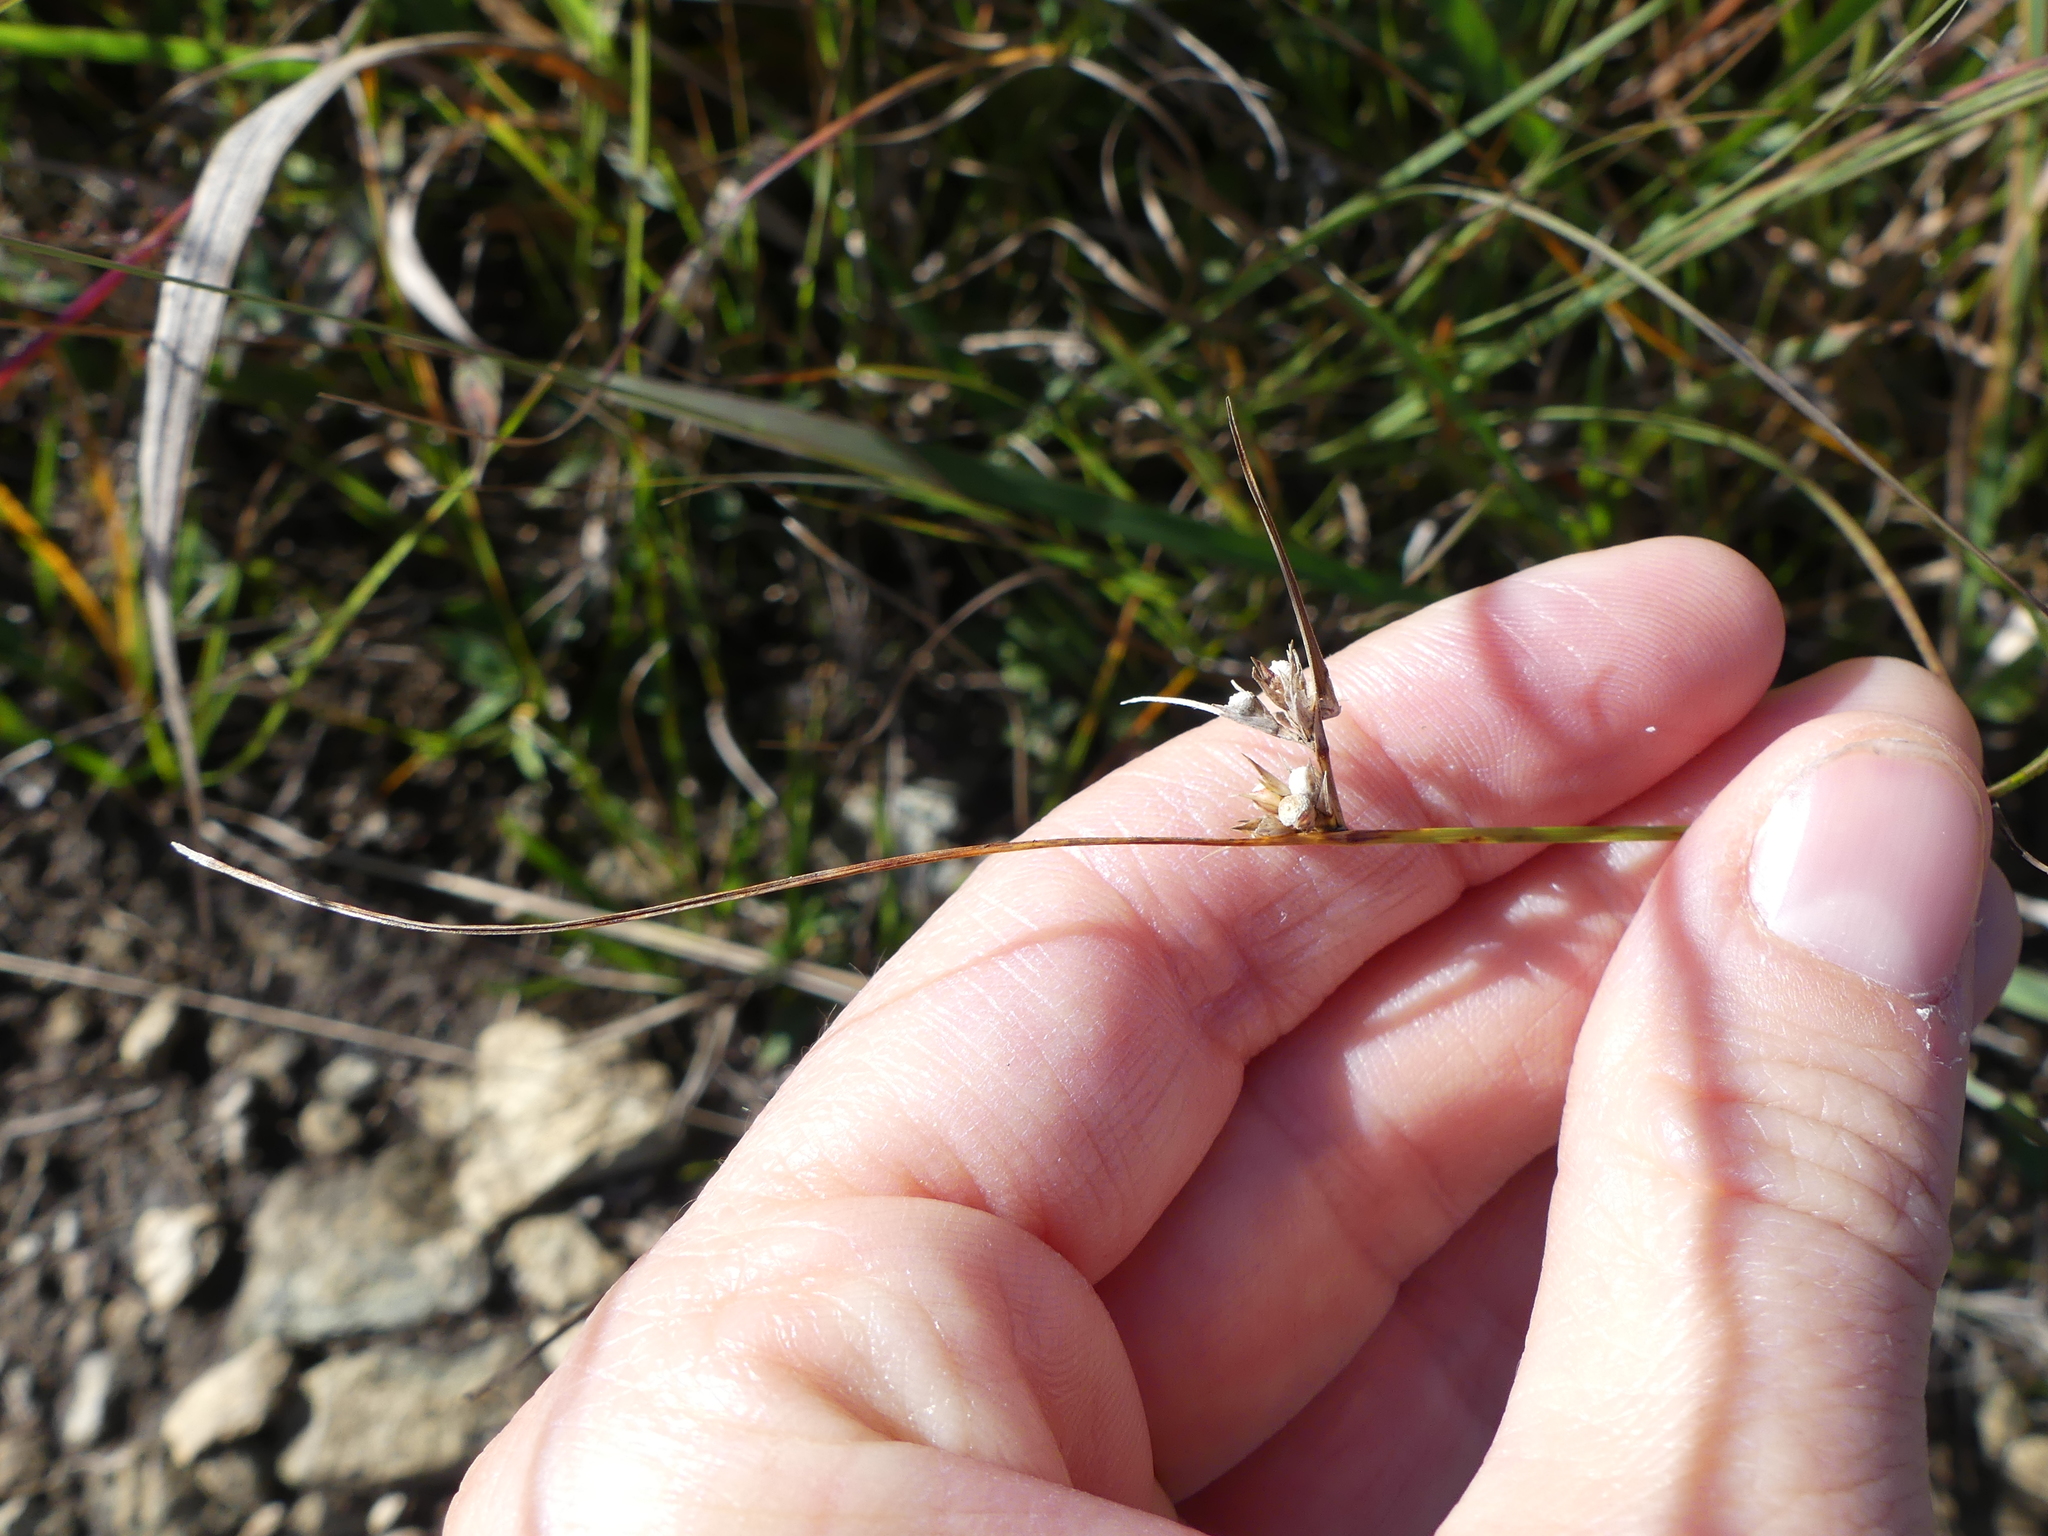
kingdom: Plantae
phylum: Tracheophyta
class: Liliopsida
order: Poales
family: Cyperaceae
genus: Scleria
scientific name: Scleria pauciflora
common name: Few-flowered nutrush
